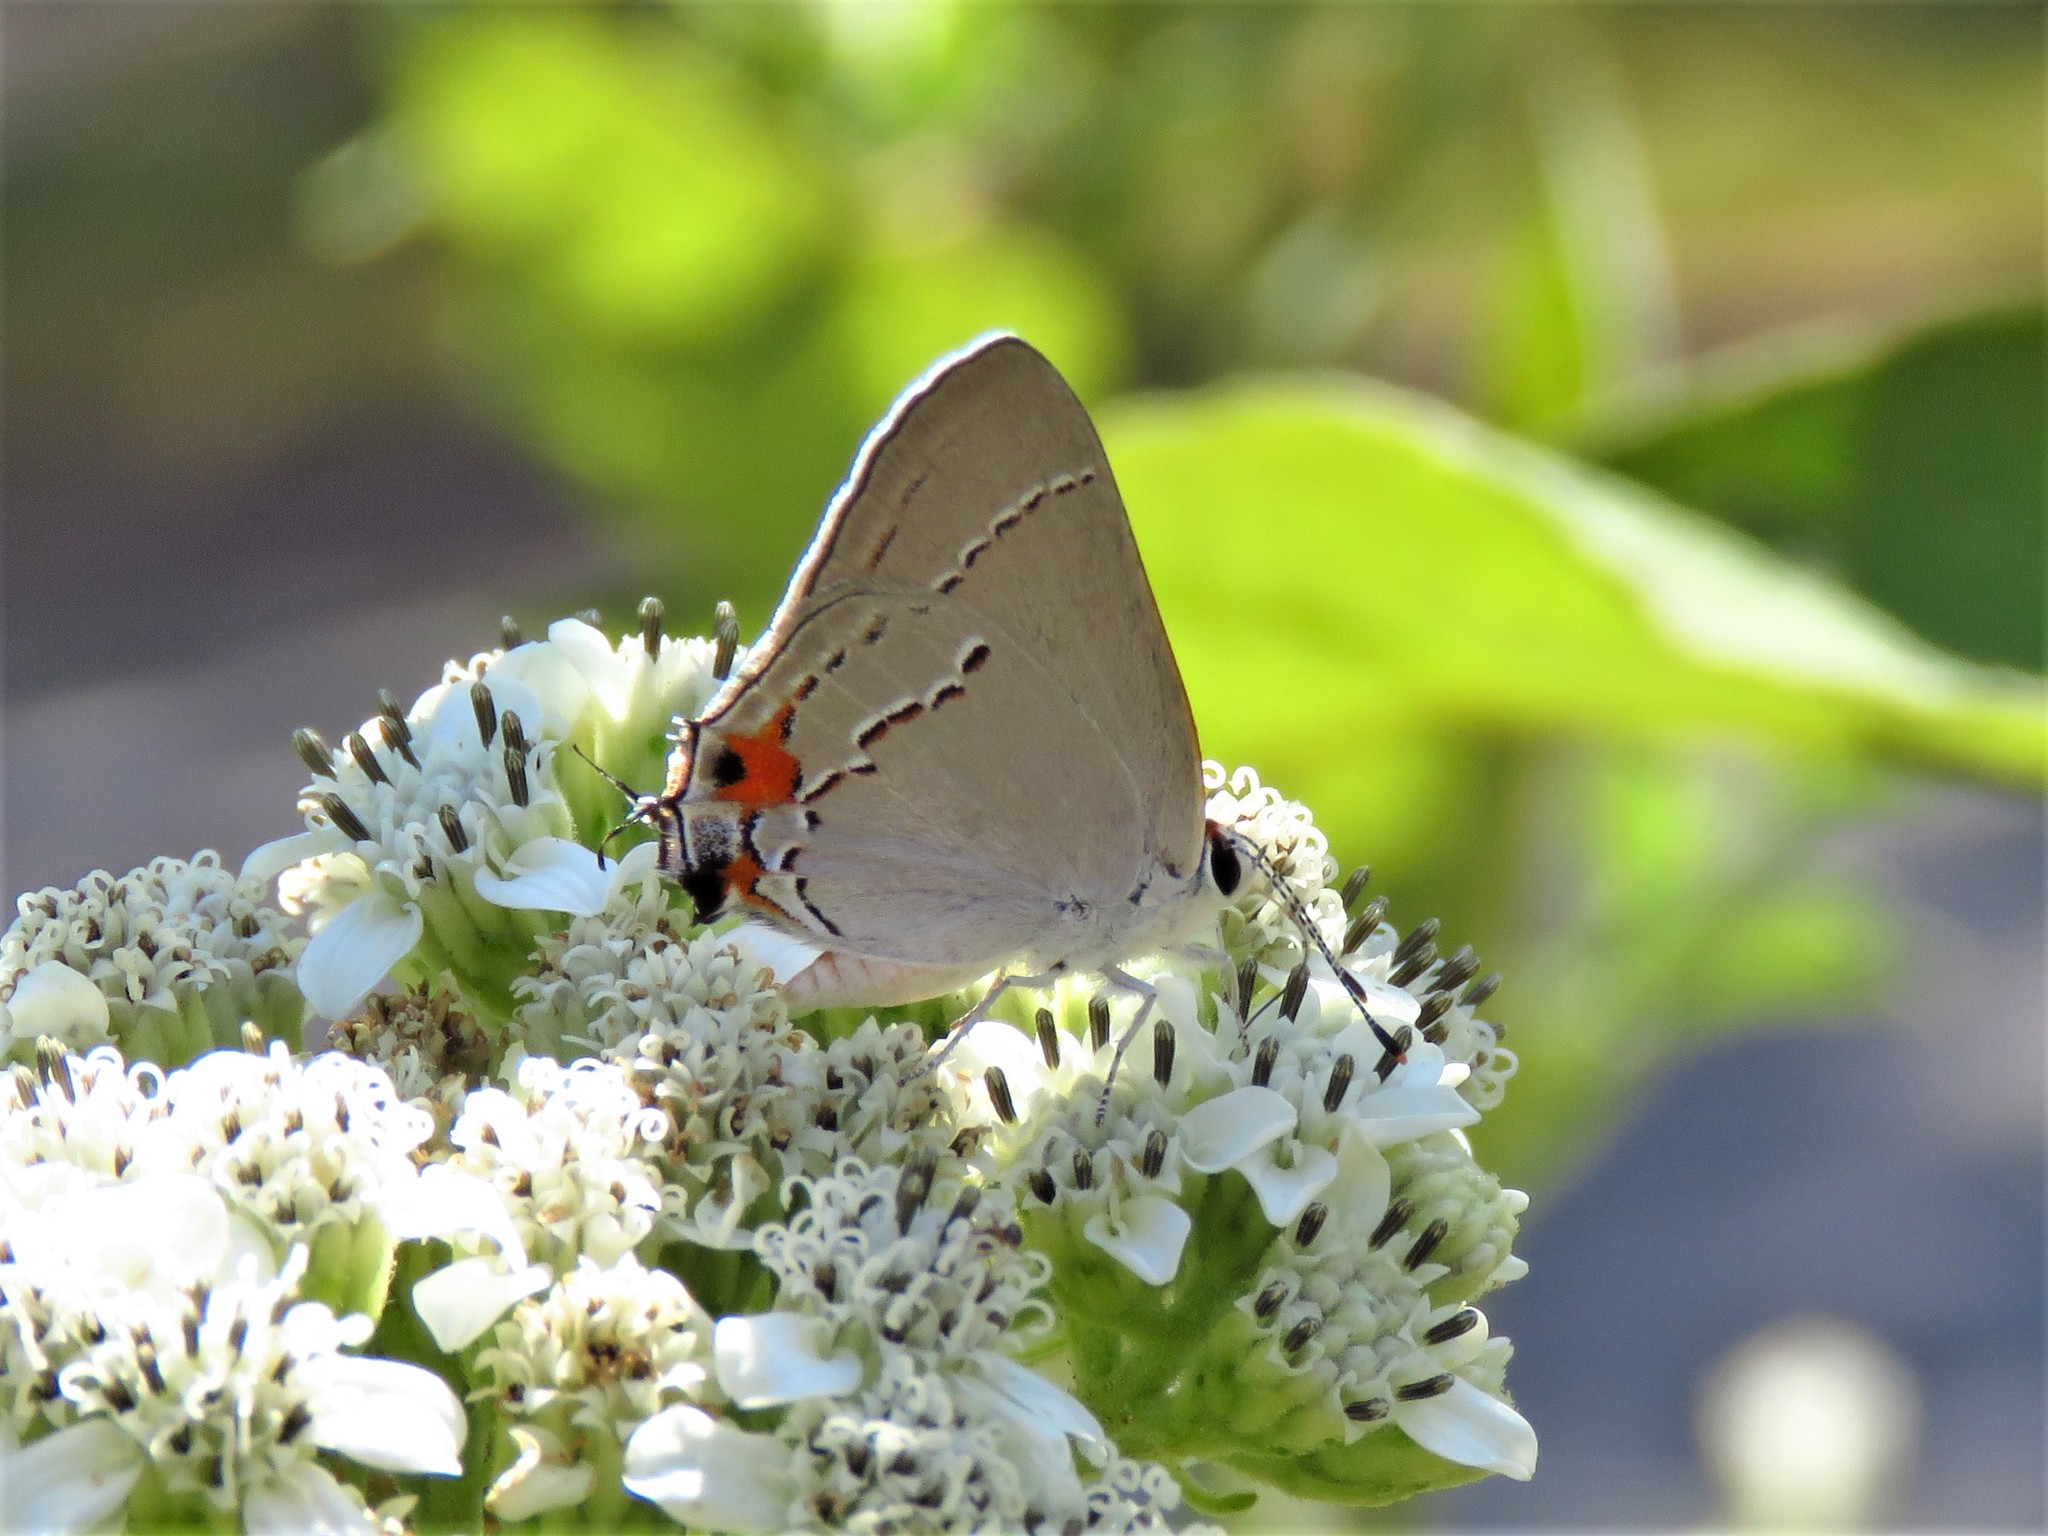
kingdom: Animalia
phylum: Arthropoda
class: Insecta
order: Lepidoptera
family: Lycaenidae
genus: Strymon
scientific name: Strymon melinus
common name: Gray hairstreak
